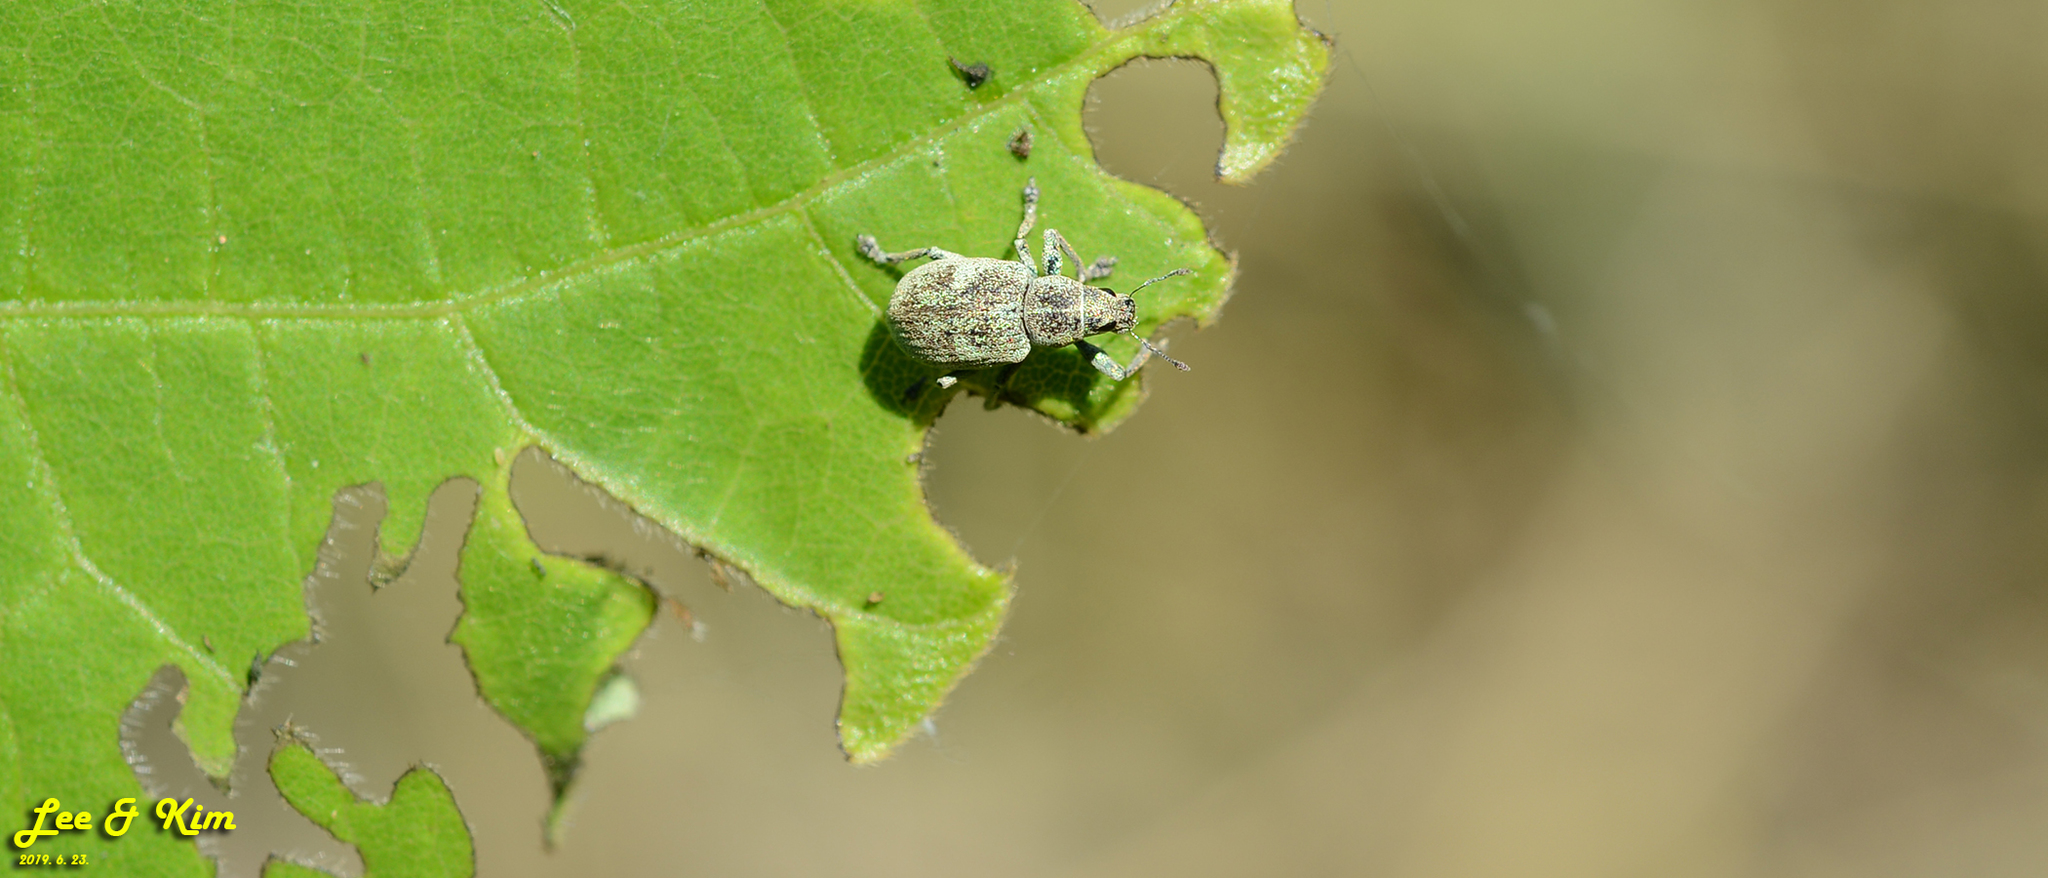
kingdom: Animalia
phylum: Arthropoda
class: Insecta
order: Coleoptera
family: Curculionidae
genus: Eugnathus
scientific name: Eugnathus distinctus
